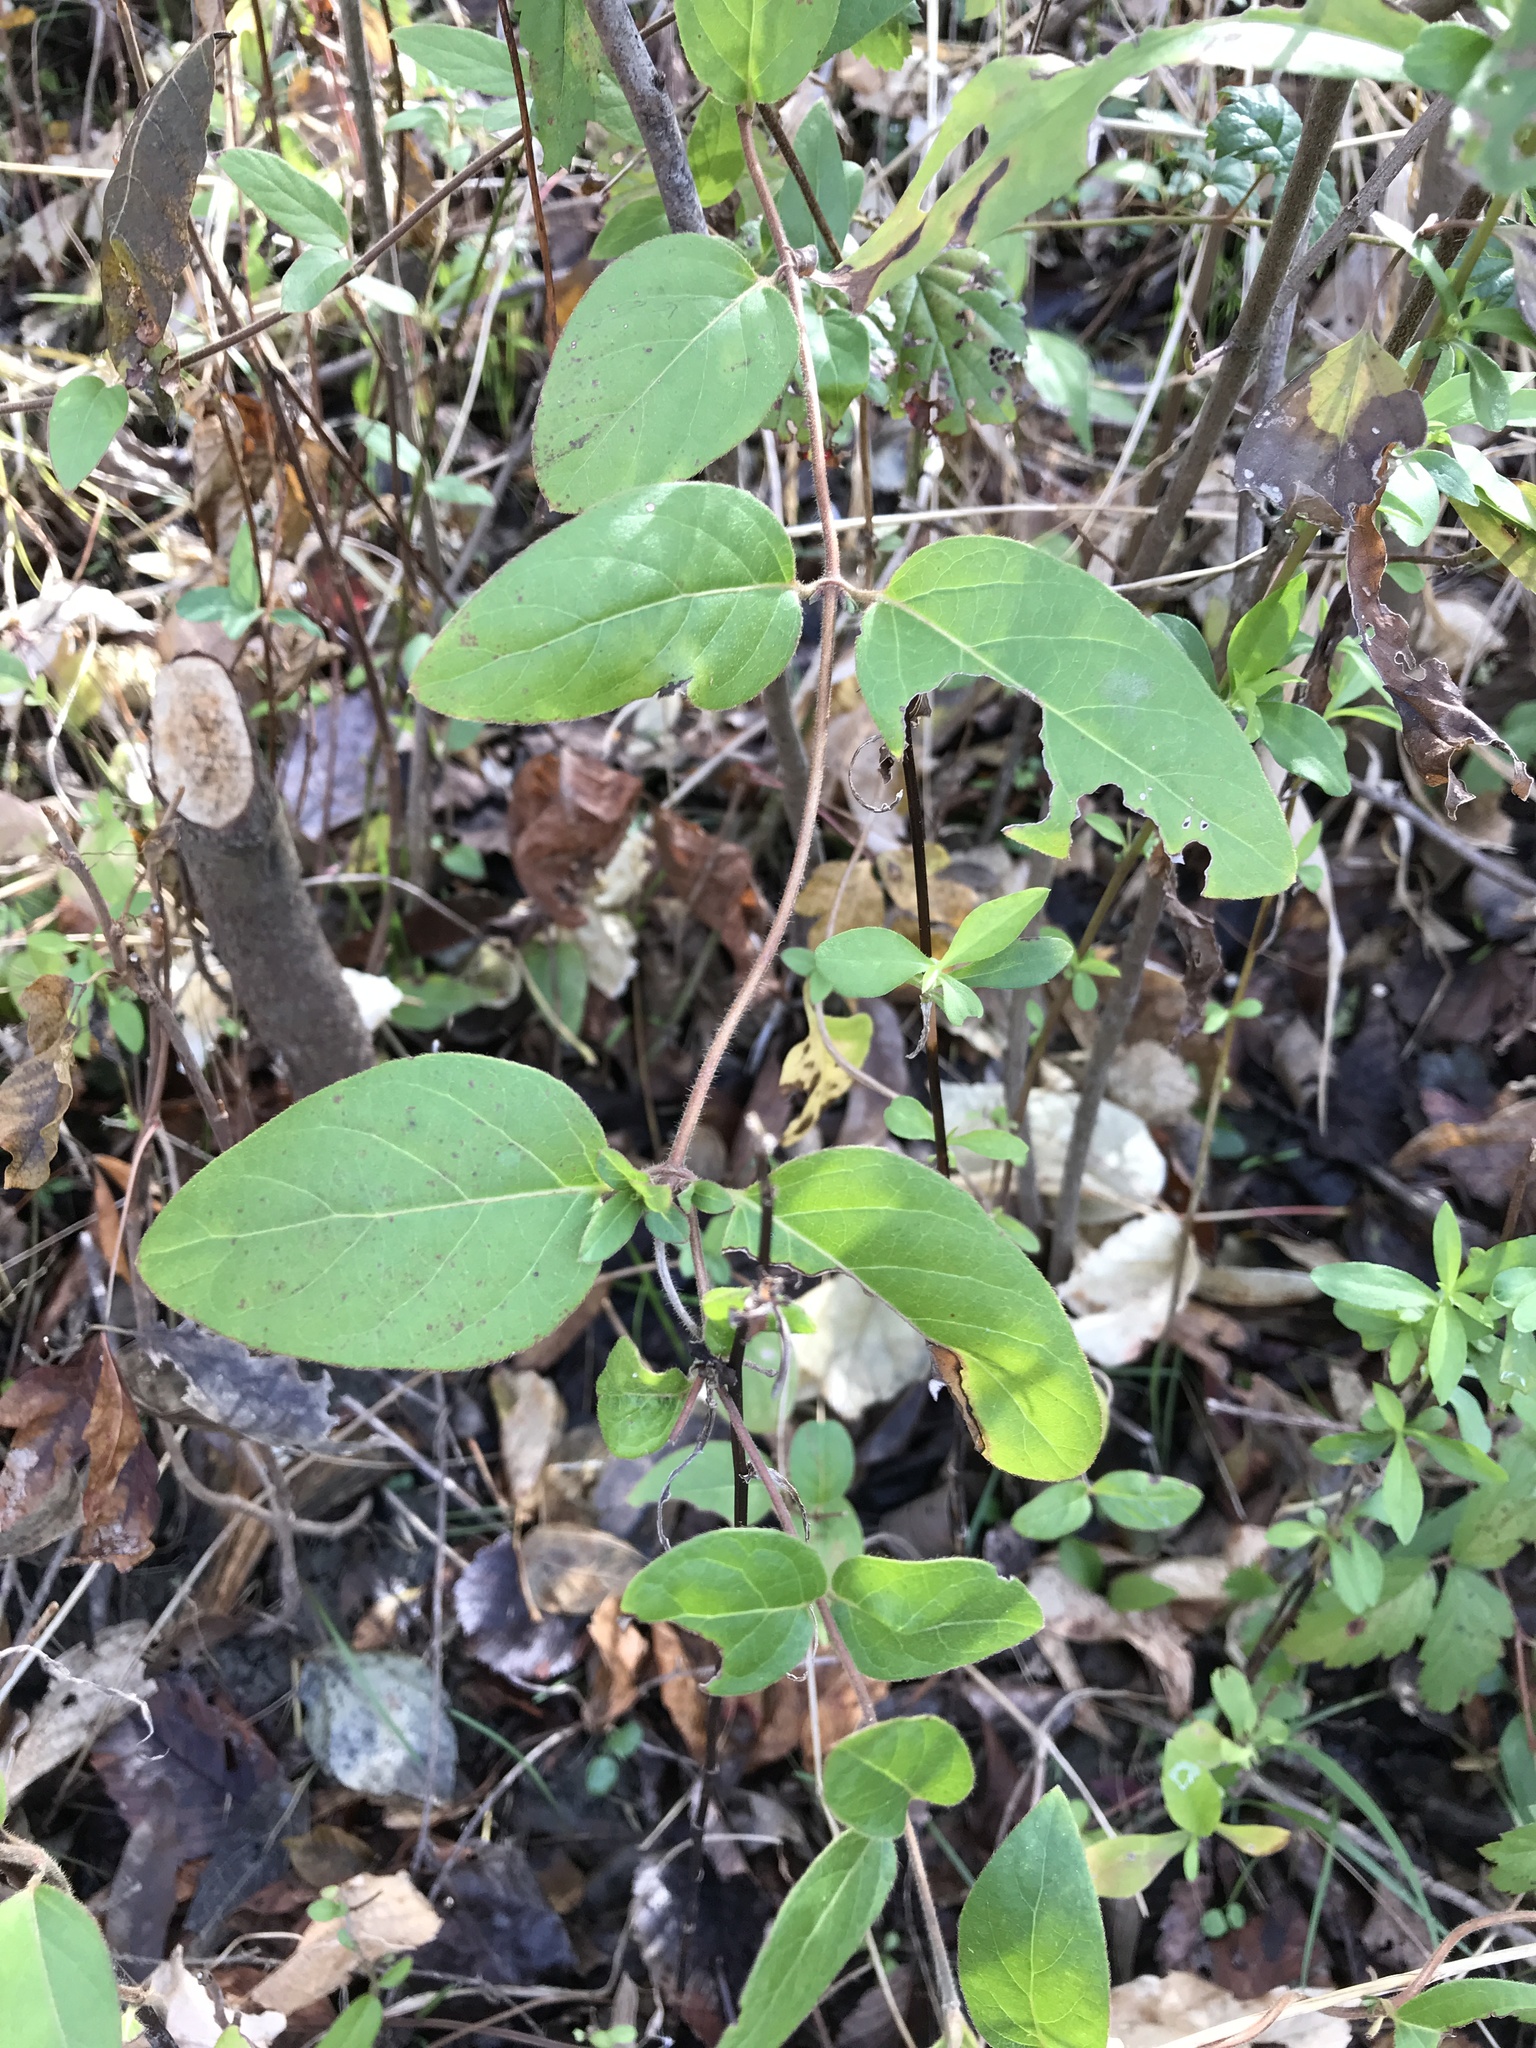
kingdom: Plantae
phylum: Tracheophyta
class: Magnoliopsida
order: Dipsacales
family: Caprifoliaceae
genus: Lonicera
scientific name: Lonicera japonica
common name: Japanese honeysuckle
